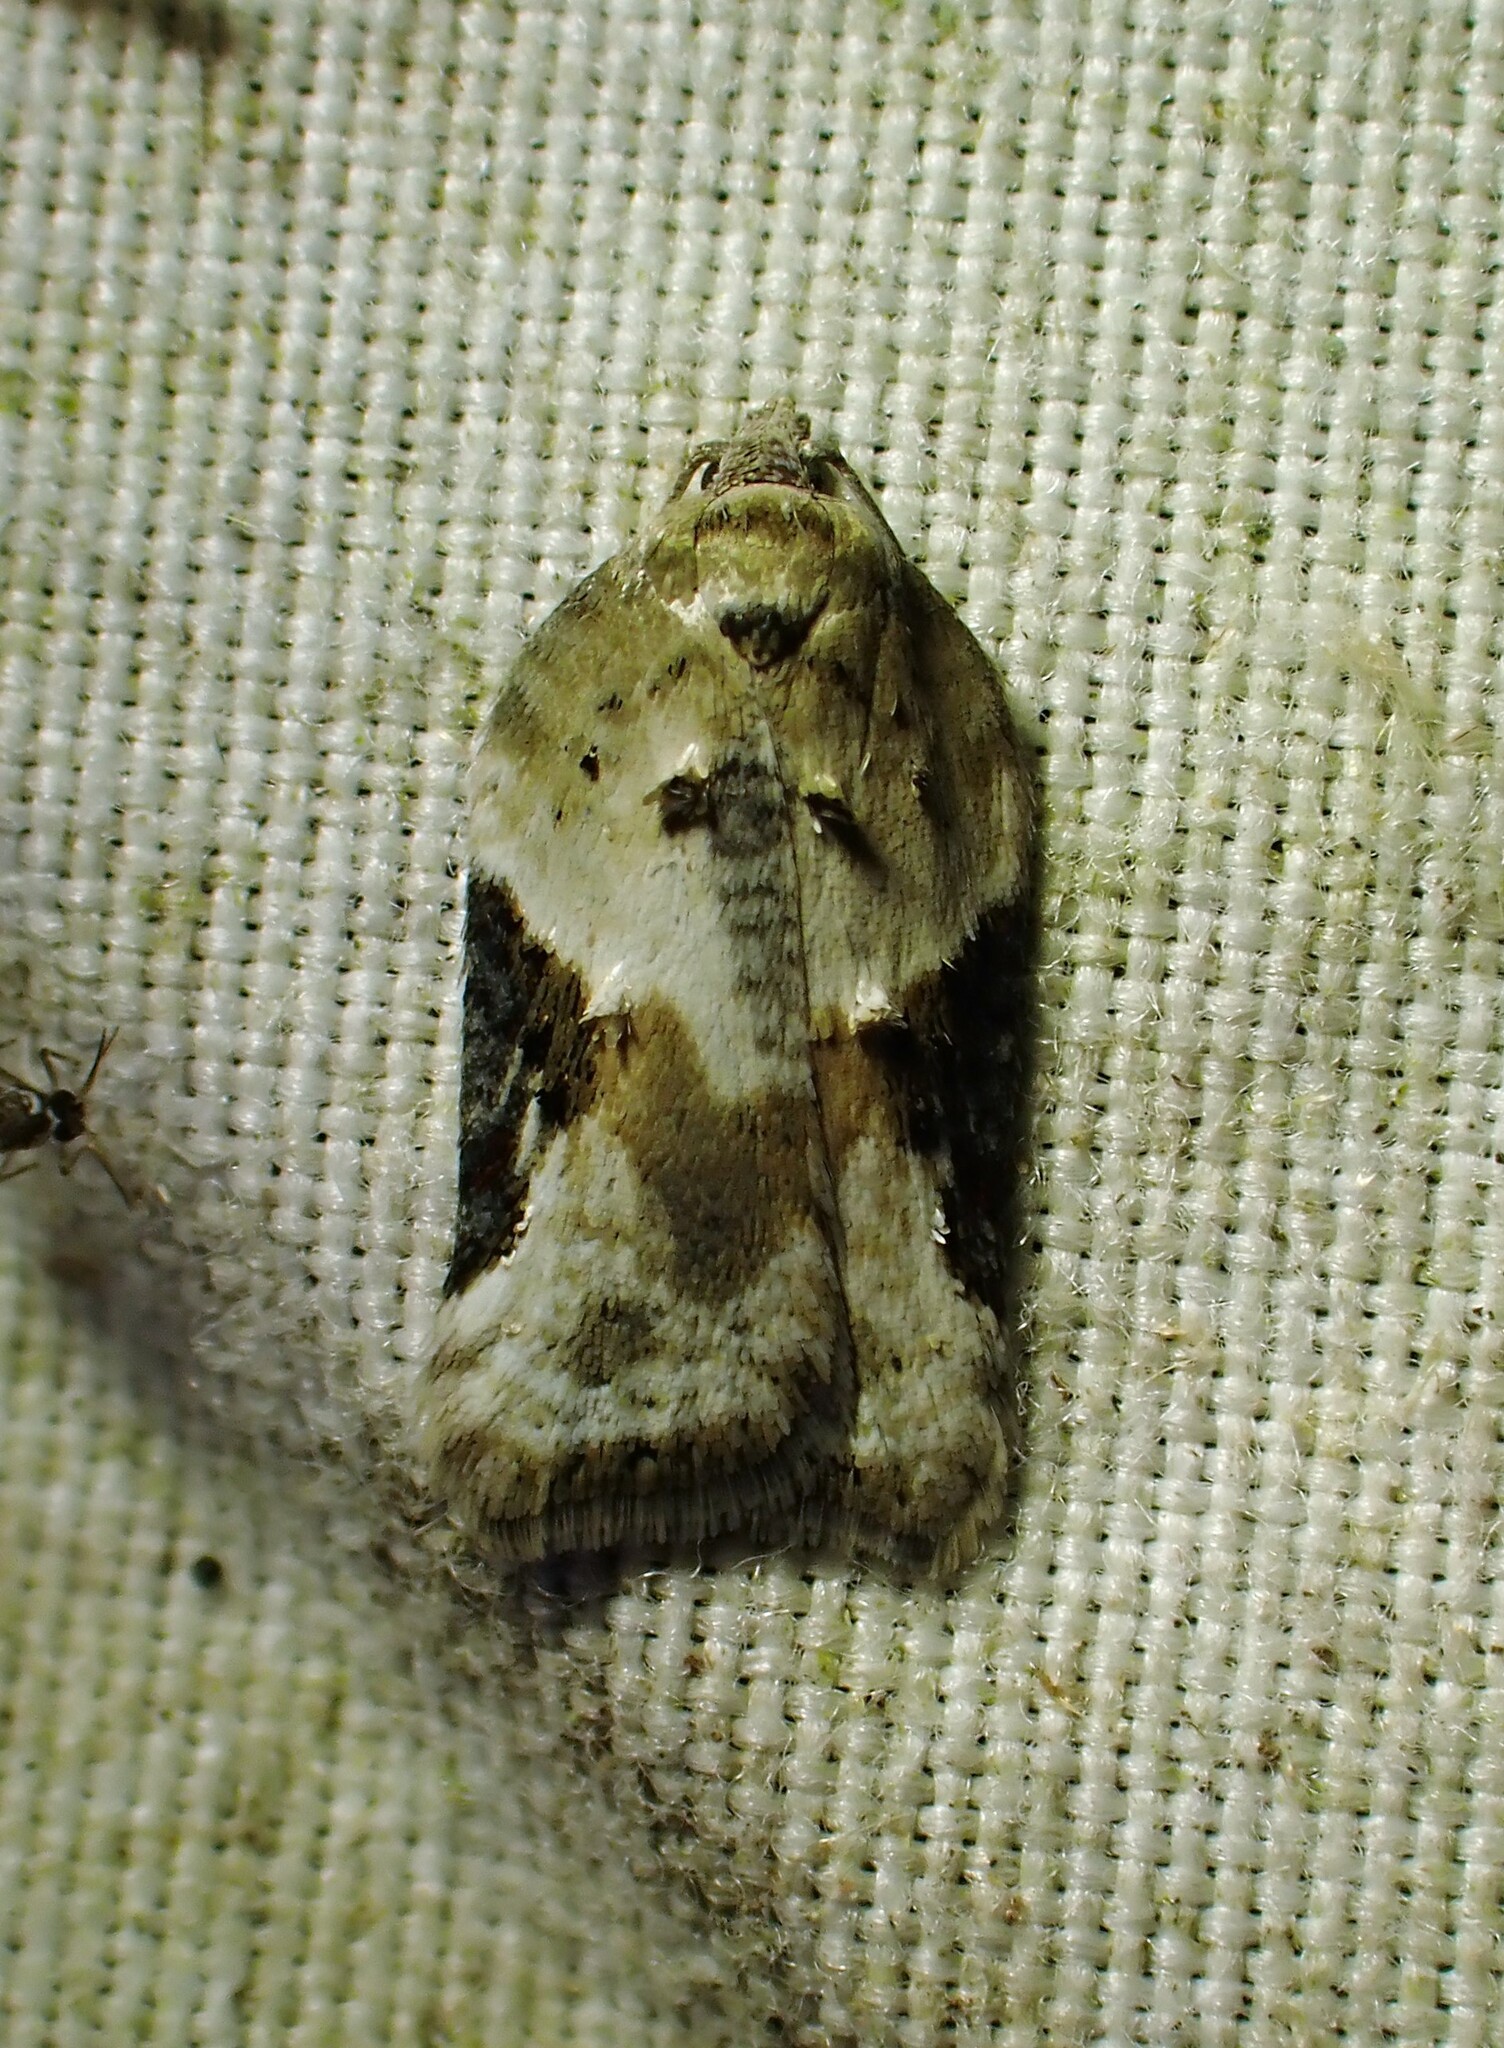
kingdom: Animalia
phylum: Arthropoda
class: Insecta
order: Lepidoptera
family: Tortricidae
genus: Acleris
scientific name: Acleris forbesana
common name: Forbes' acleris moth
